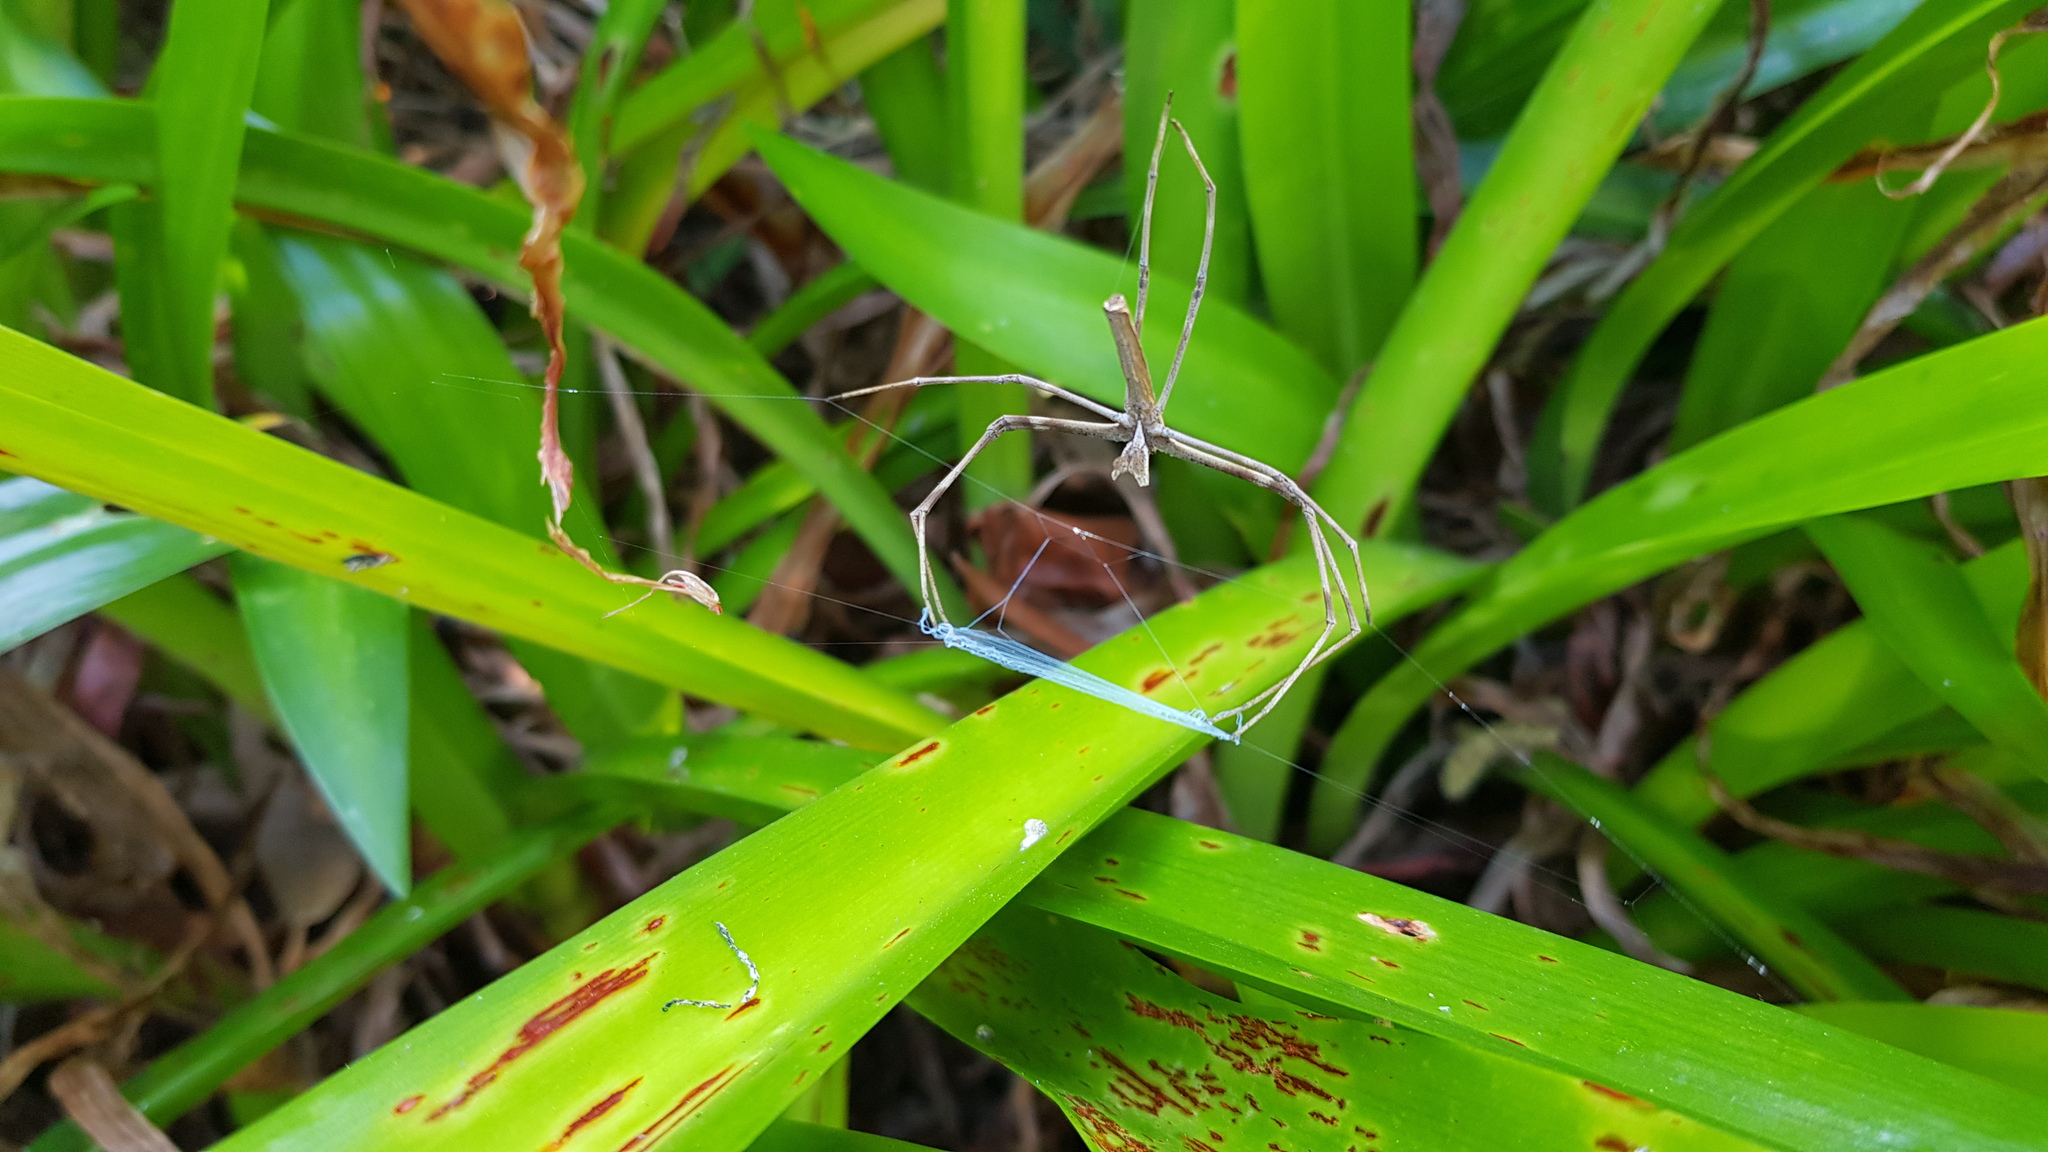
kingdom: Animalia
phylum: Arthropoda
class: Arachnida
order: Araneae
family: Deinopidae
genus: Deinopis
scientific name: Deinopis subrufa
